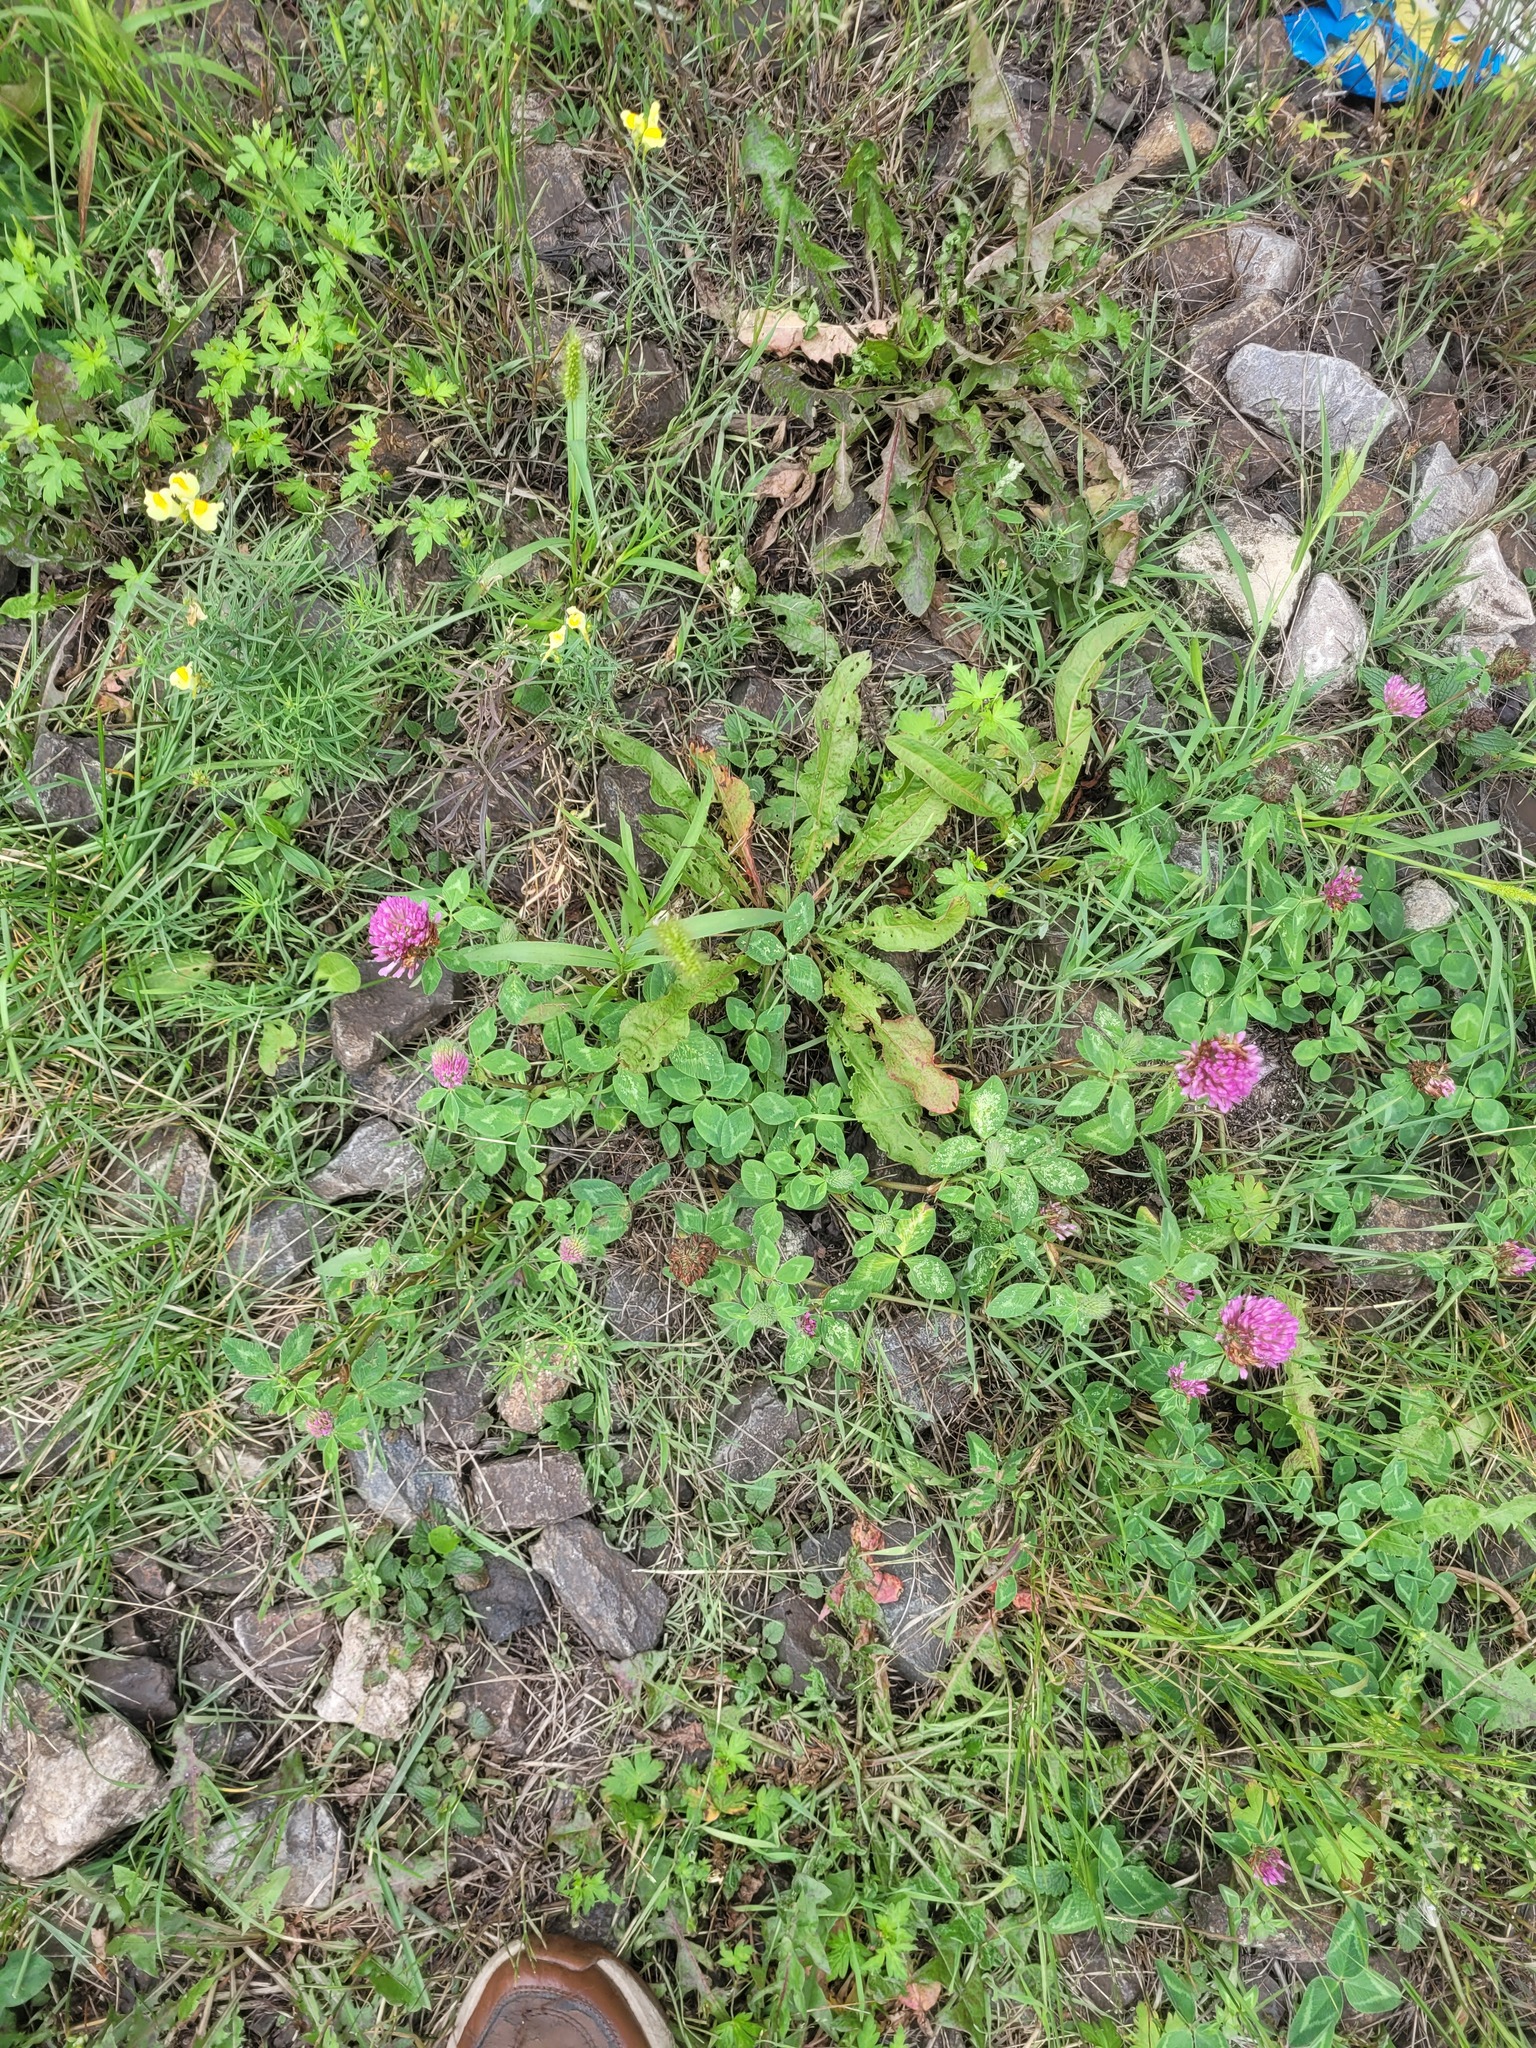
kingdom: Plantae
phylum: Tracheophyta
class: Magnoliopsida
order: Fabales
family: Fabaceae
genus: Trifolium
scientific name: Trifolium pratense
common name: Red clover
